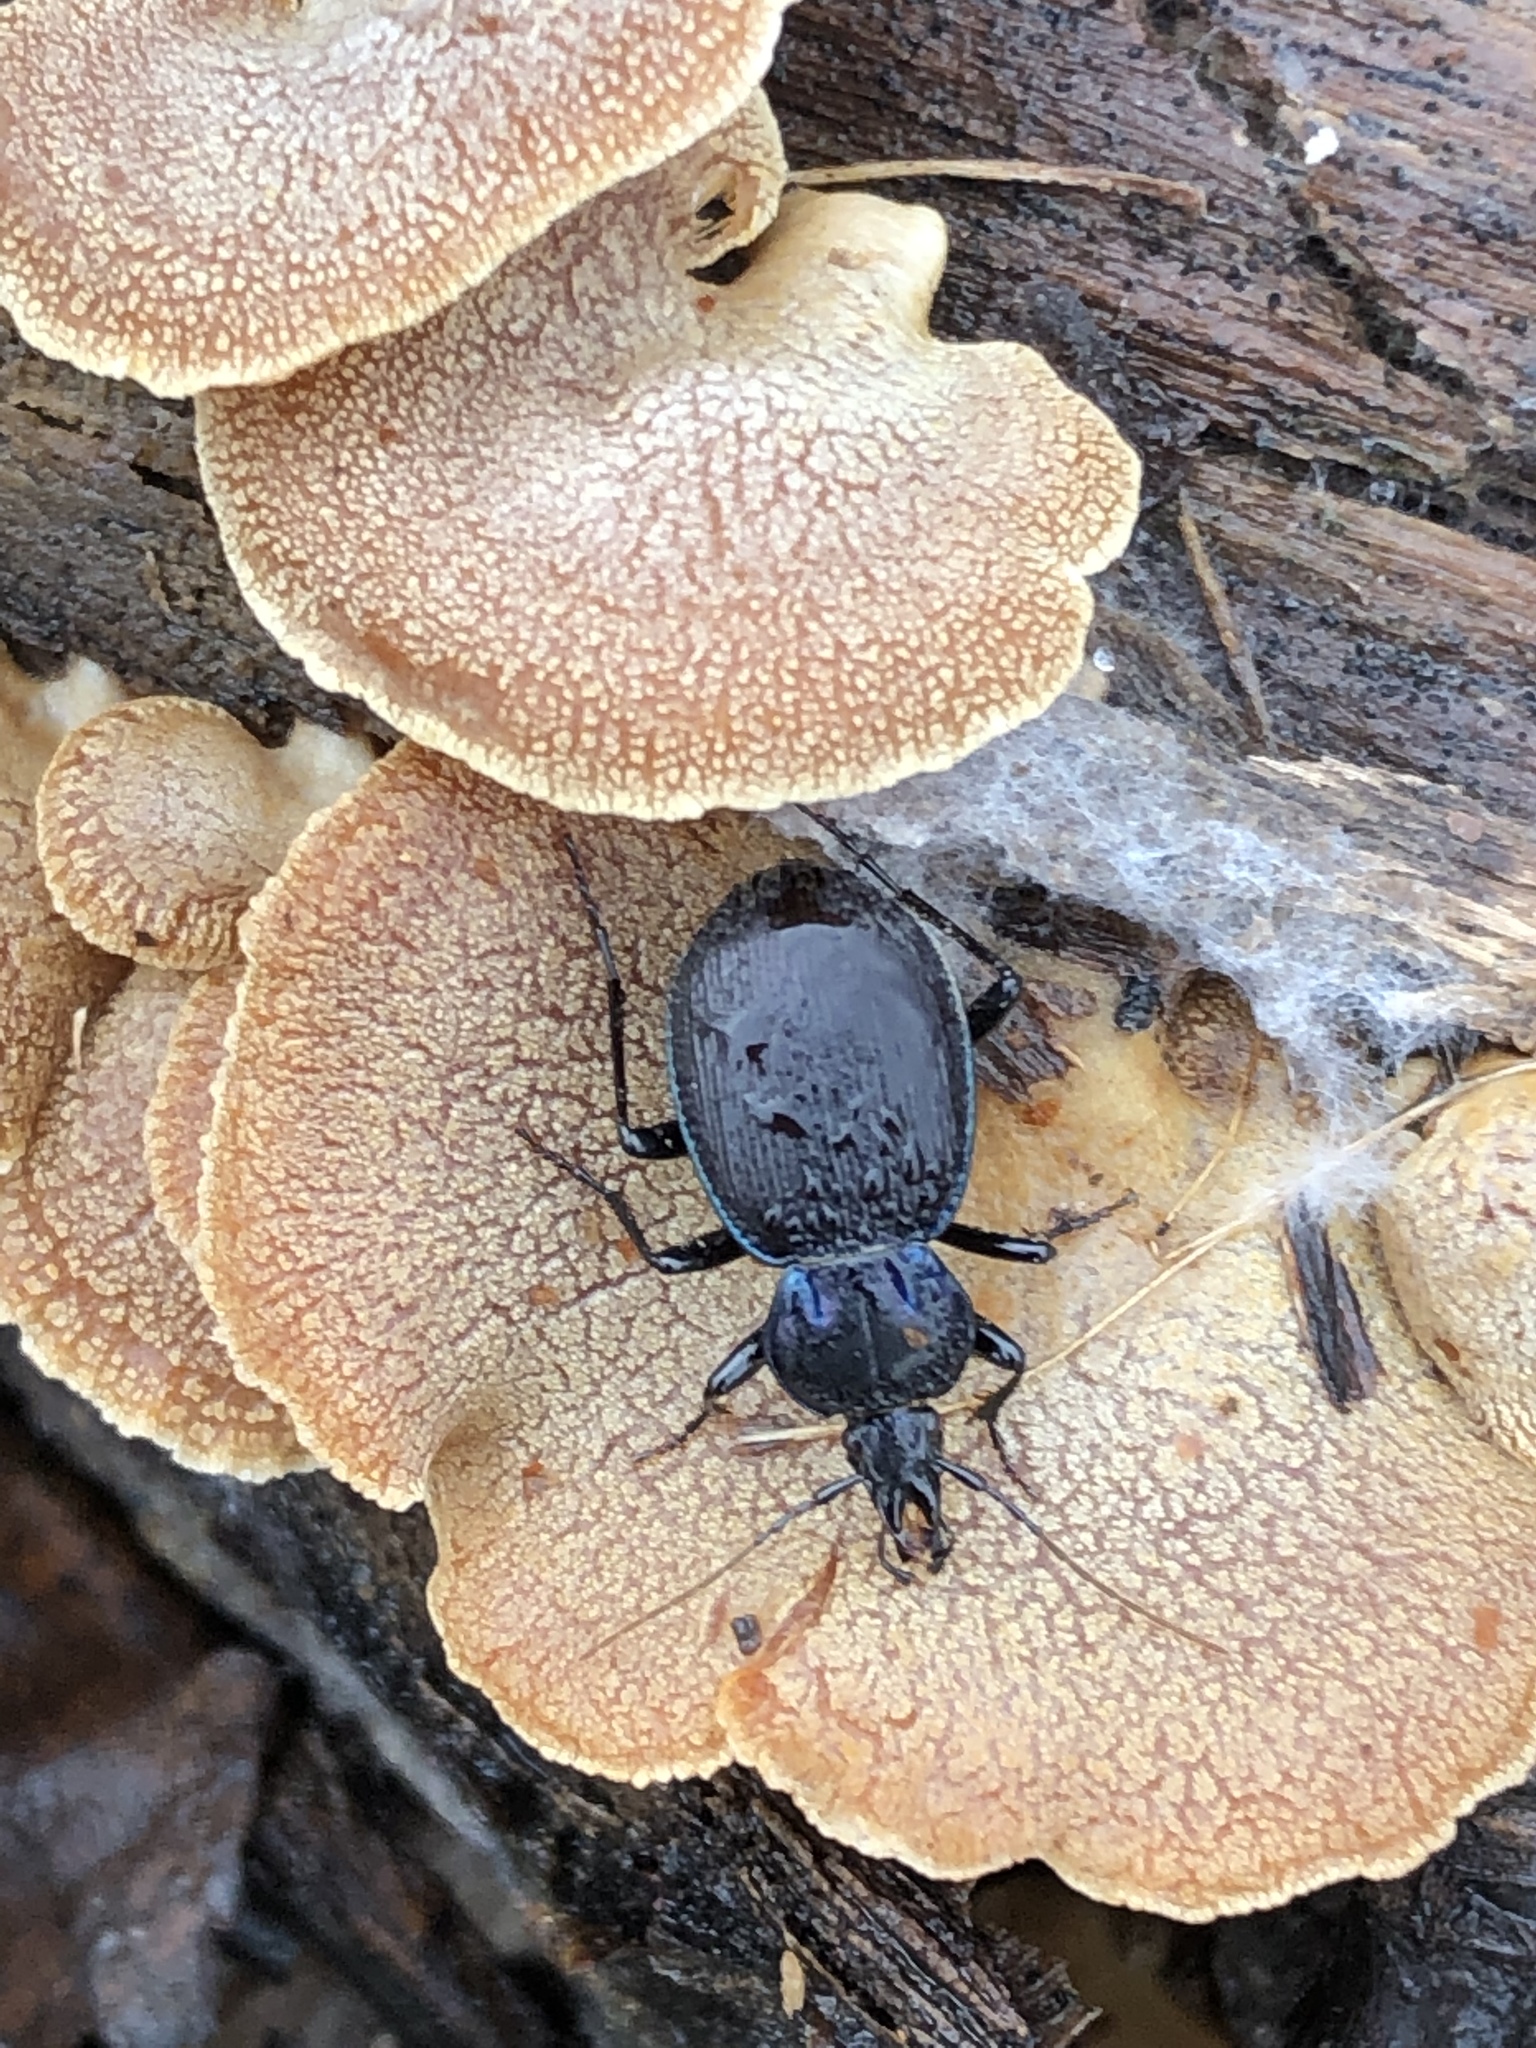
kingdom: Animalia
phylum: Arthropoda
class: Insecta
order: Coleoptera
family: Carabidae
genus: Sphaeroderus
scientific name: Sphaeroderus stenostomus
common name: Small snail-eating ground beetle
